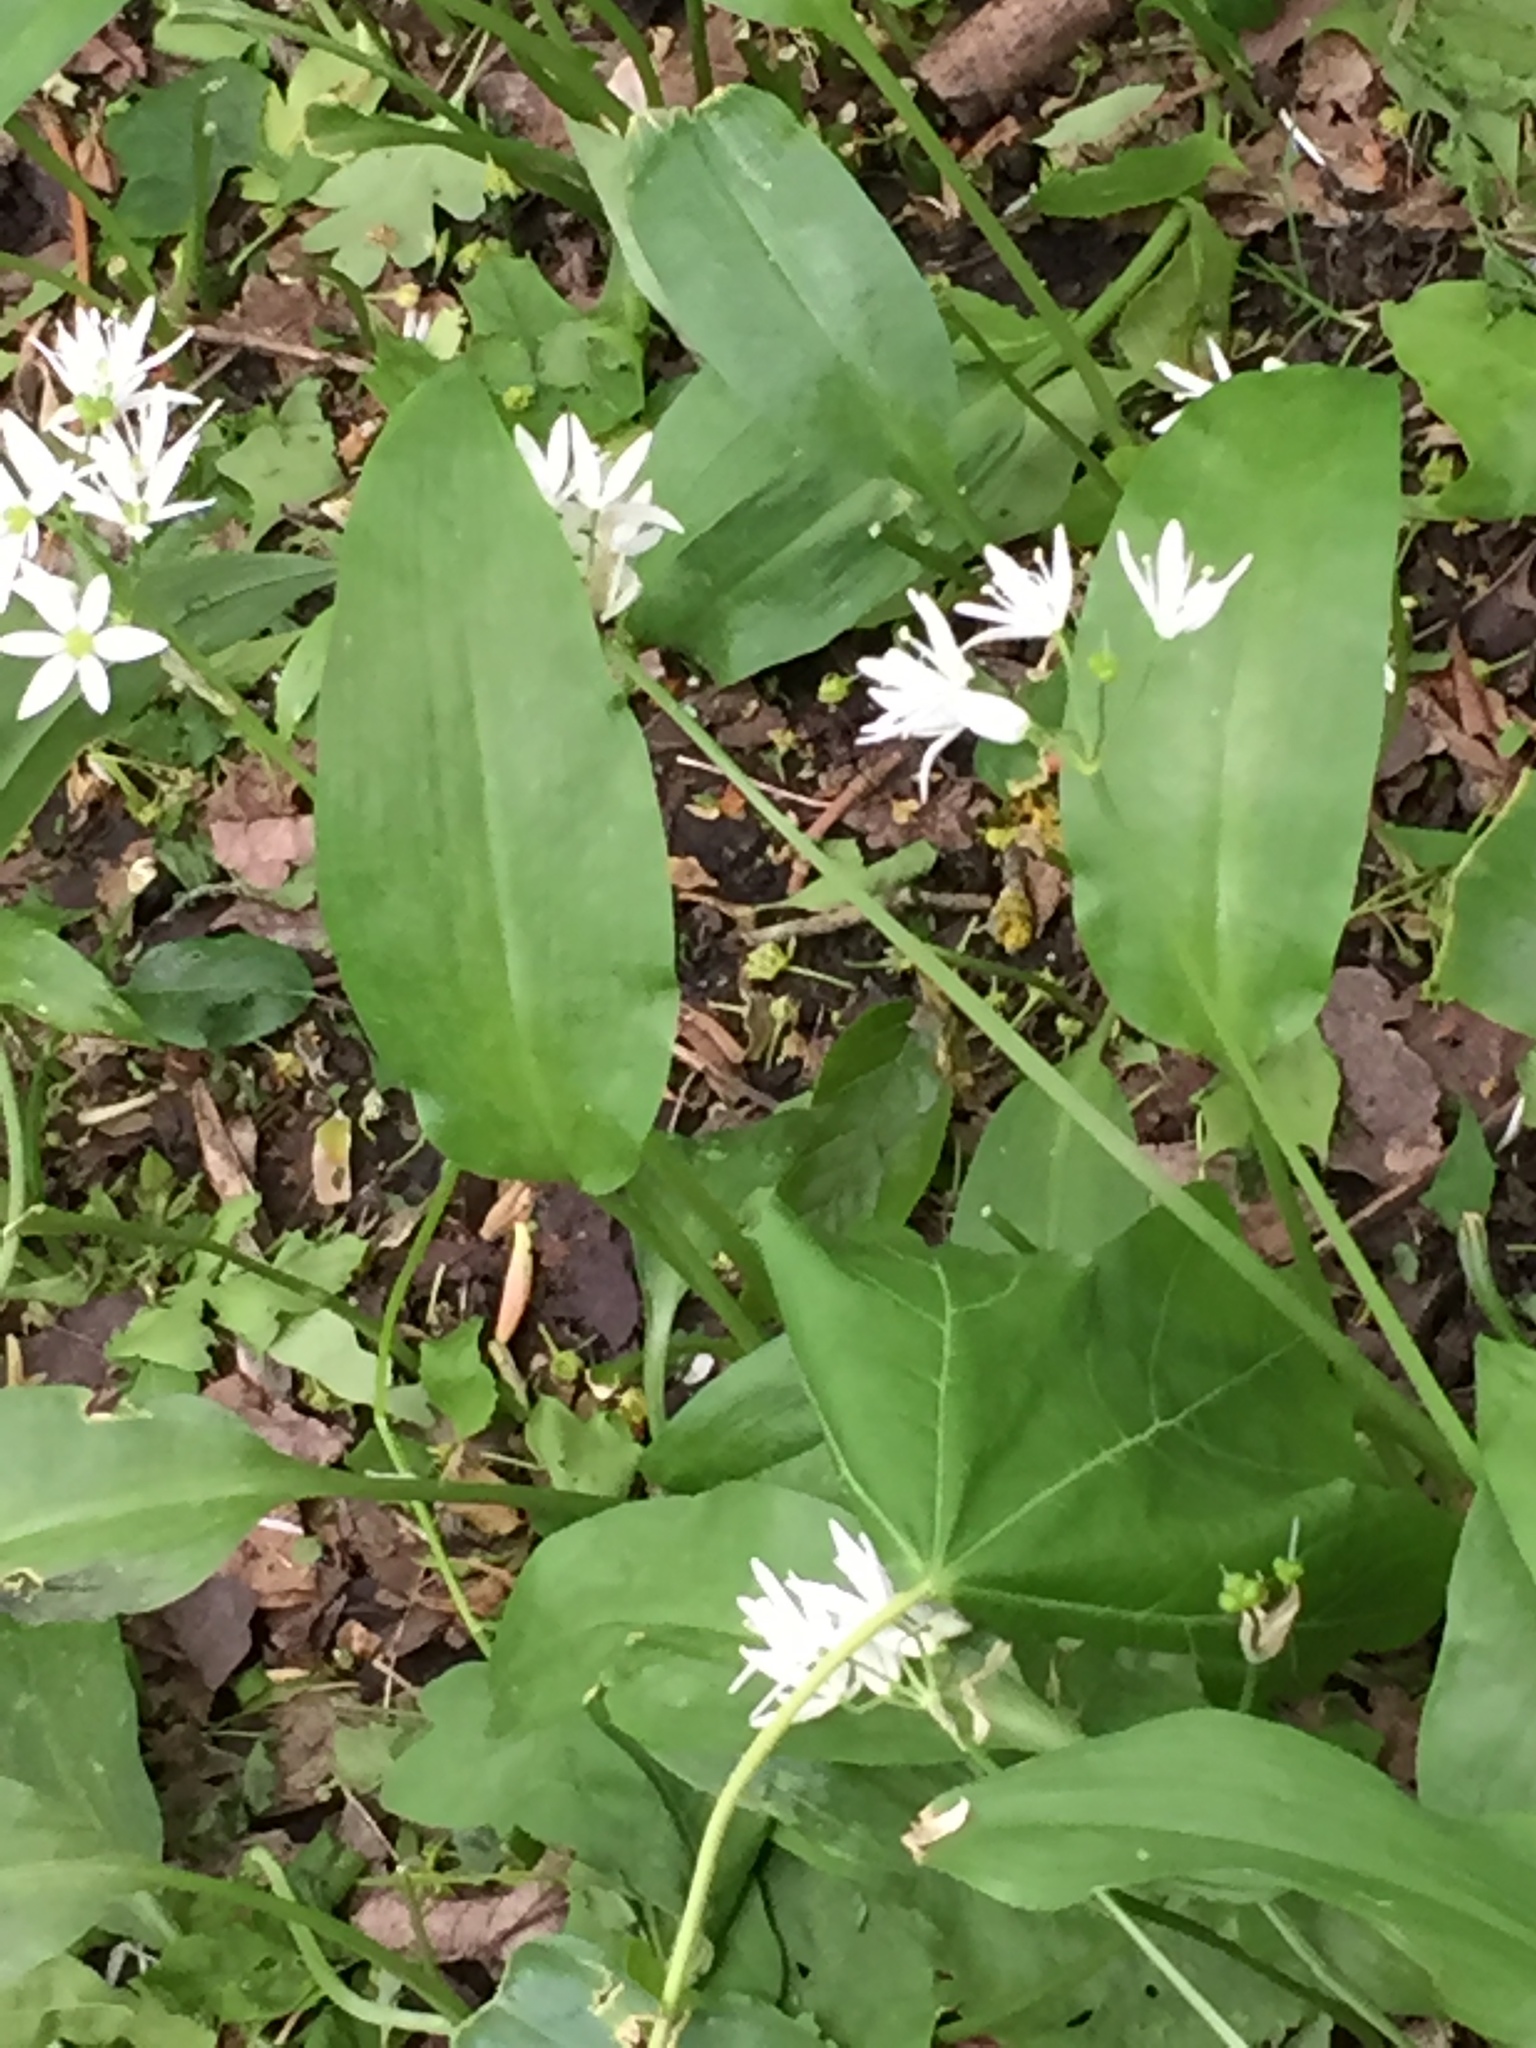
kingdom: Plantae
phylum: Tracheophyta
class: Liliopsida
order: Asparagales
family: Amaryllidaceae
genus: Allium
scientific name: Allium ursinum
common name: Ramsons
